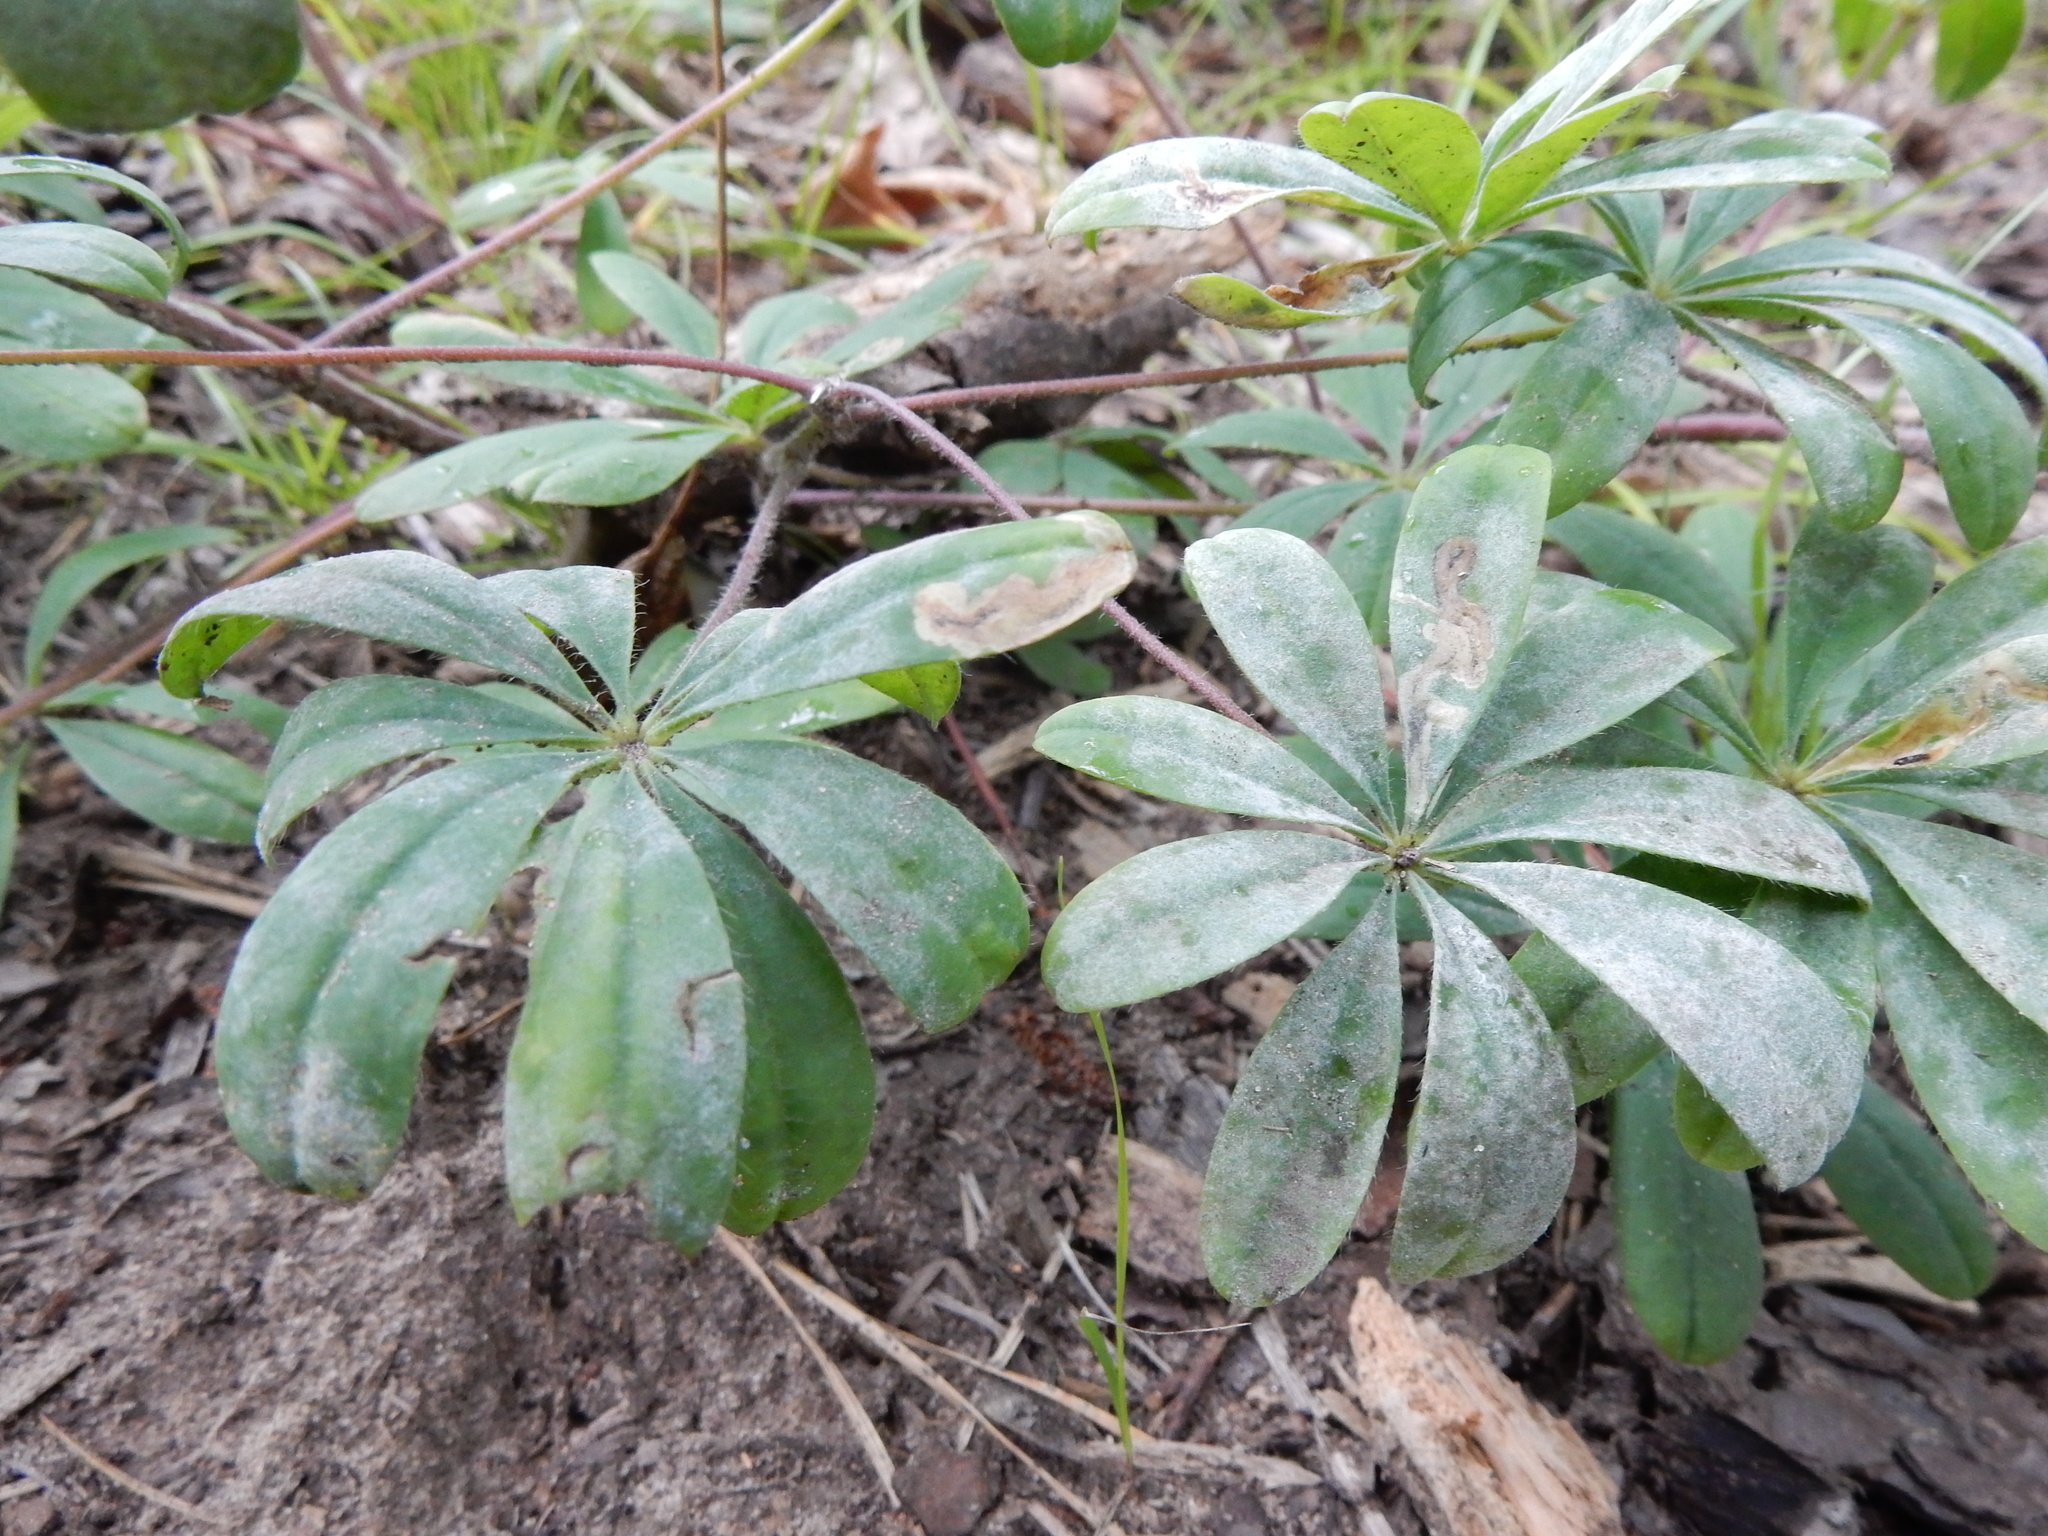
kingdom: Plantae
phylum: Tracheophyta
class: Magnoliopsida
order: Fabales
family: Fabaceae
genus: Lupinus
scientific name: Lupinus perennis
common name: Sundial lupine
